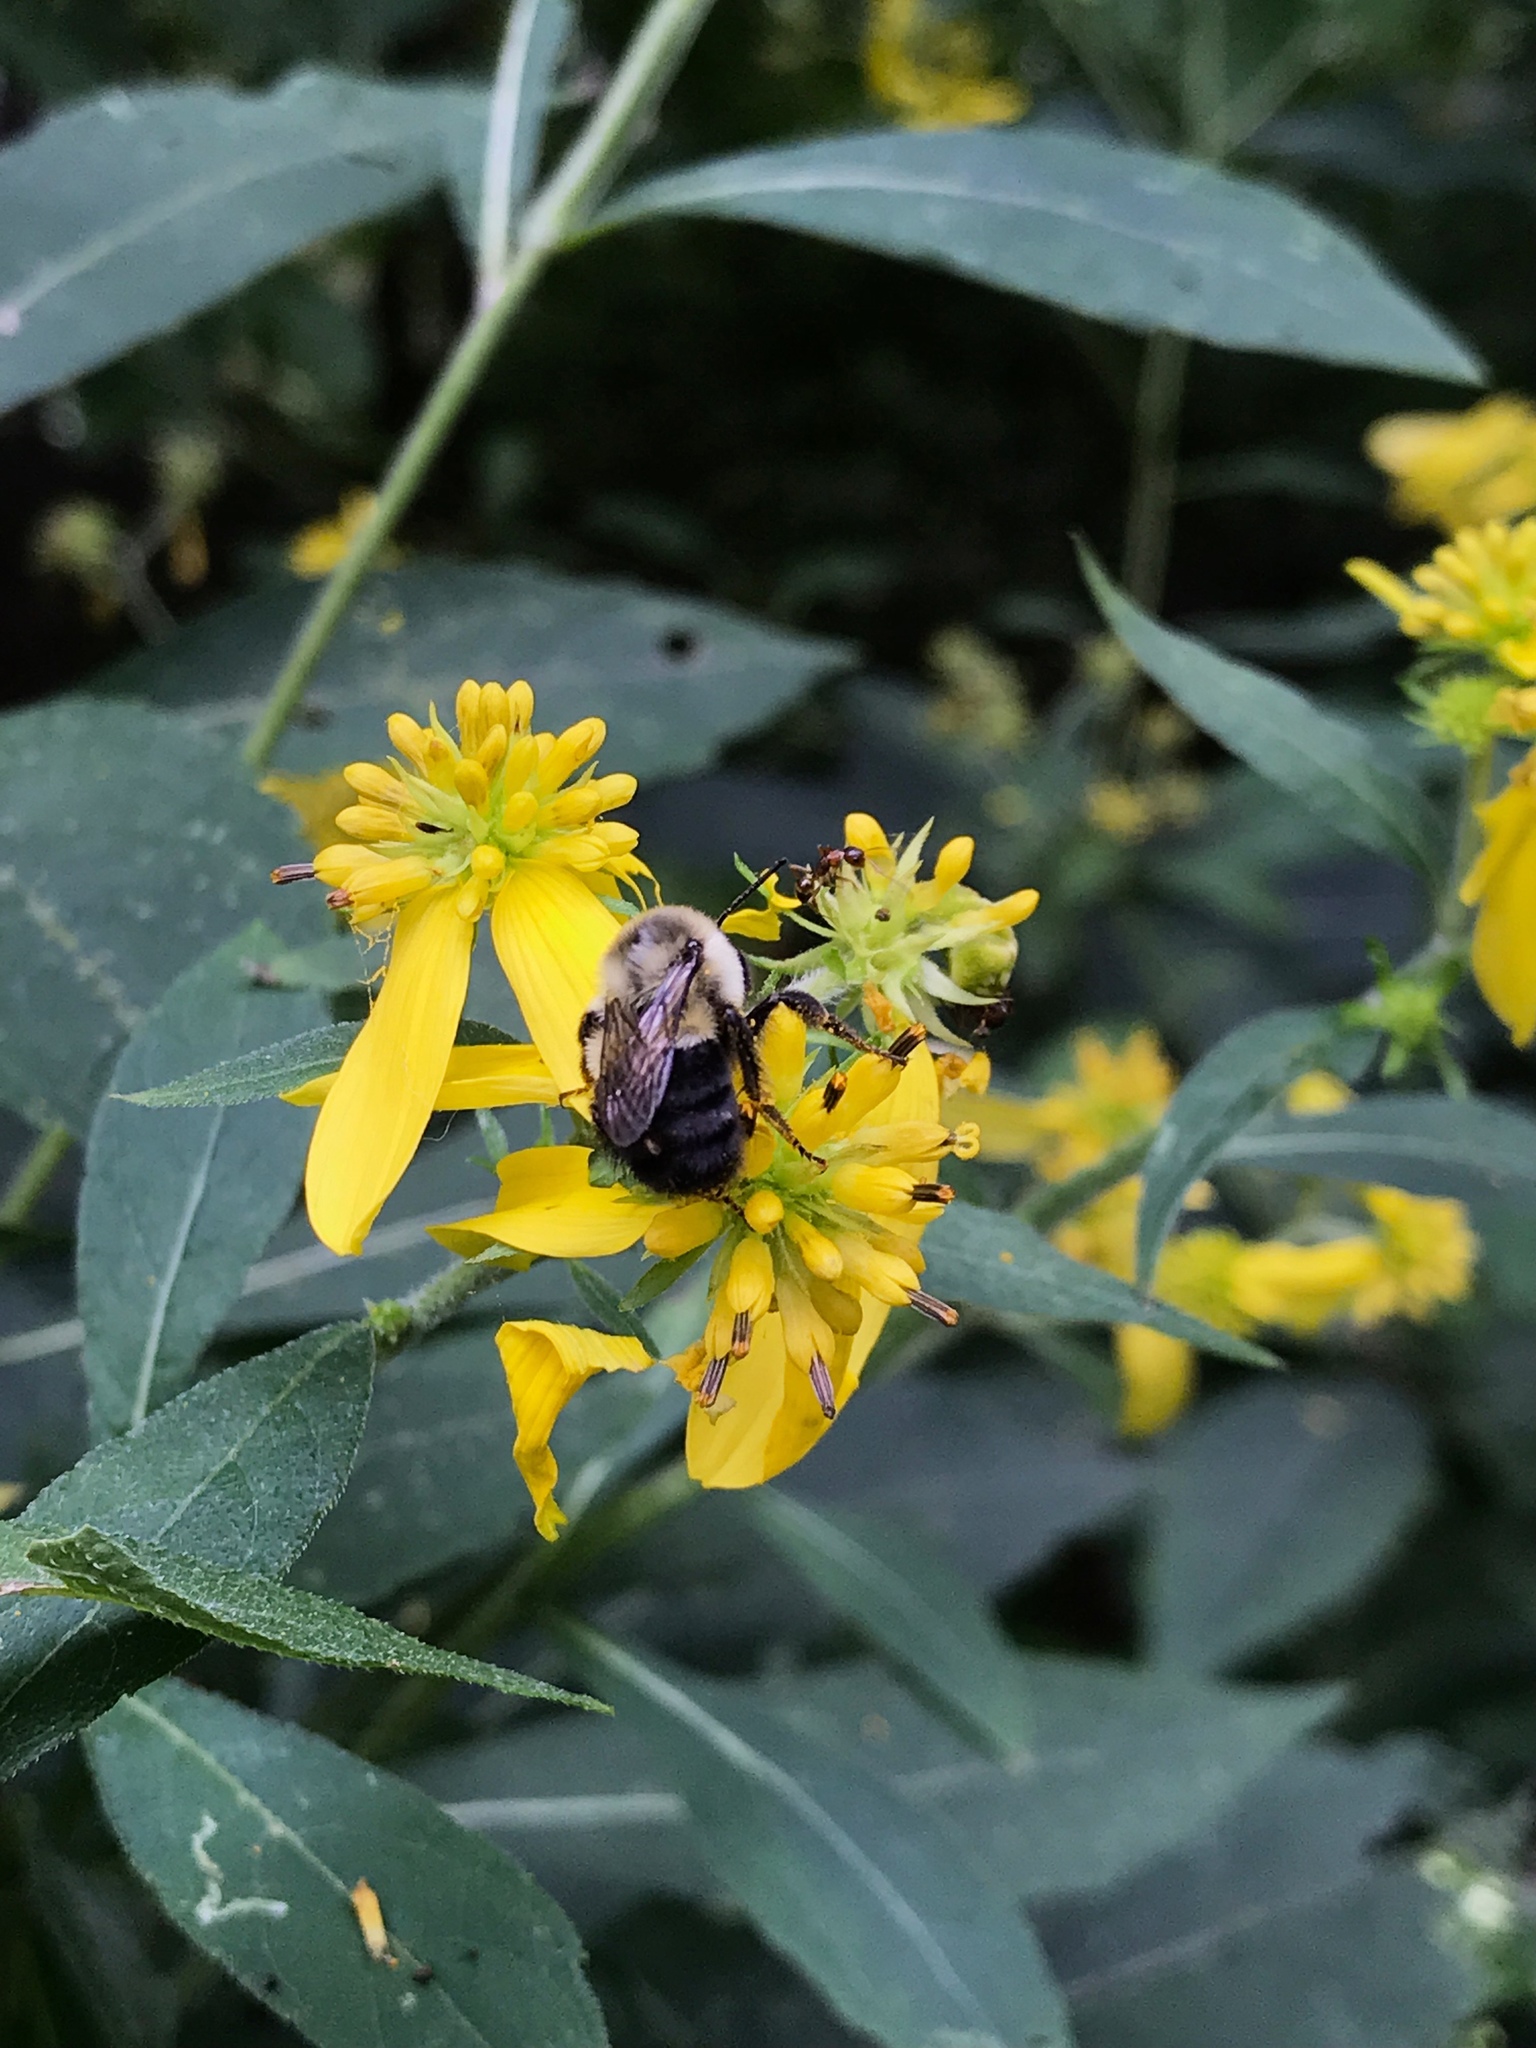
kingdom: Plantae
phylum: Tracheophyta
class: Magnoliopsida
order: Asterales
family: Asteraceae
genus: Verbesina
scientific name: Verbesina alternifolia
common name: Wingstem
